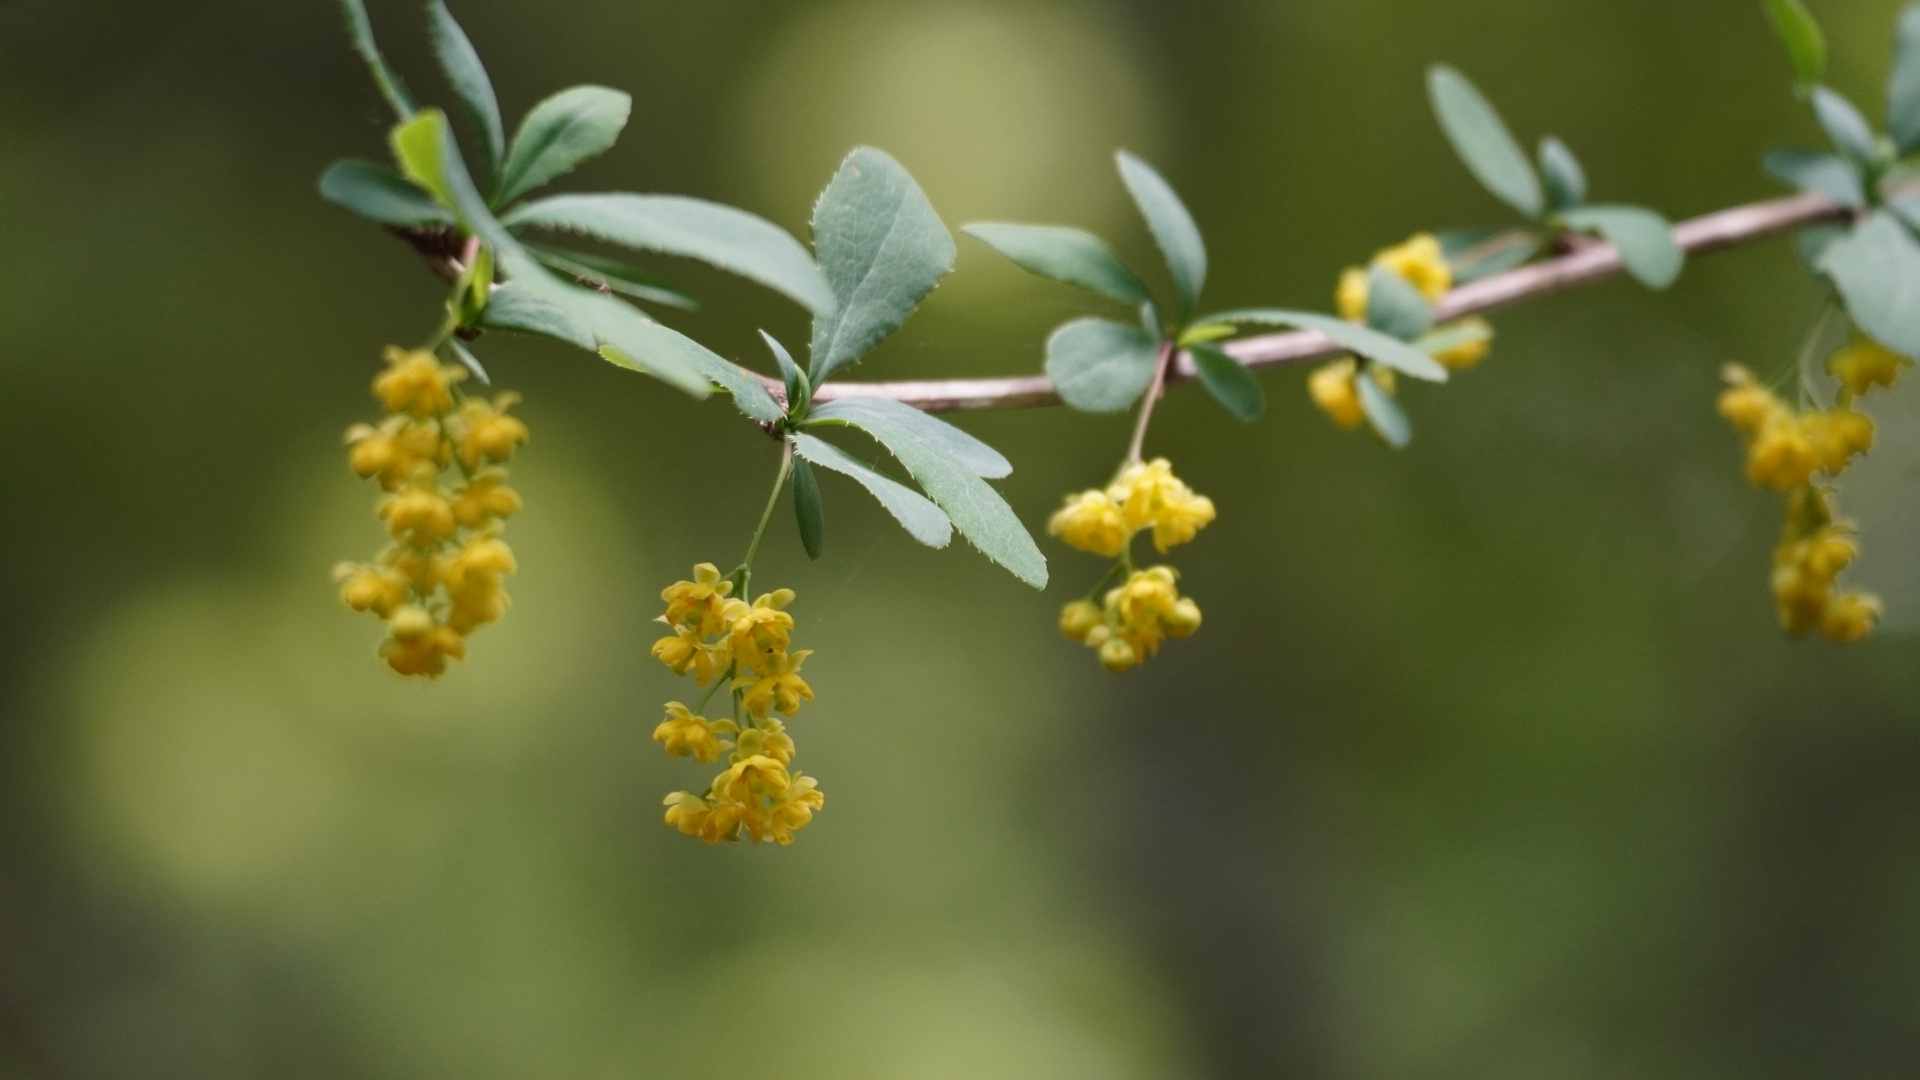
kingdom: Plantae
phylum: Tracheophyta
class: Magnoliopsida
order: Ranunculales
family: Berberidaceae
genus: Berberis
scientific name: Berberis vulgaris
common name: Barberry
